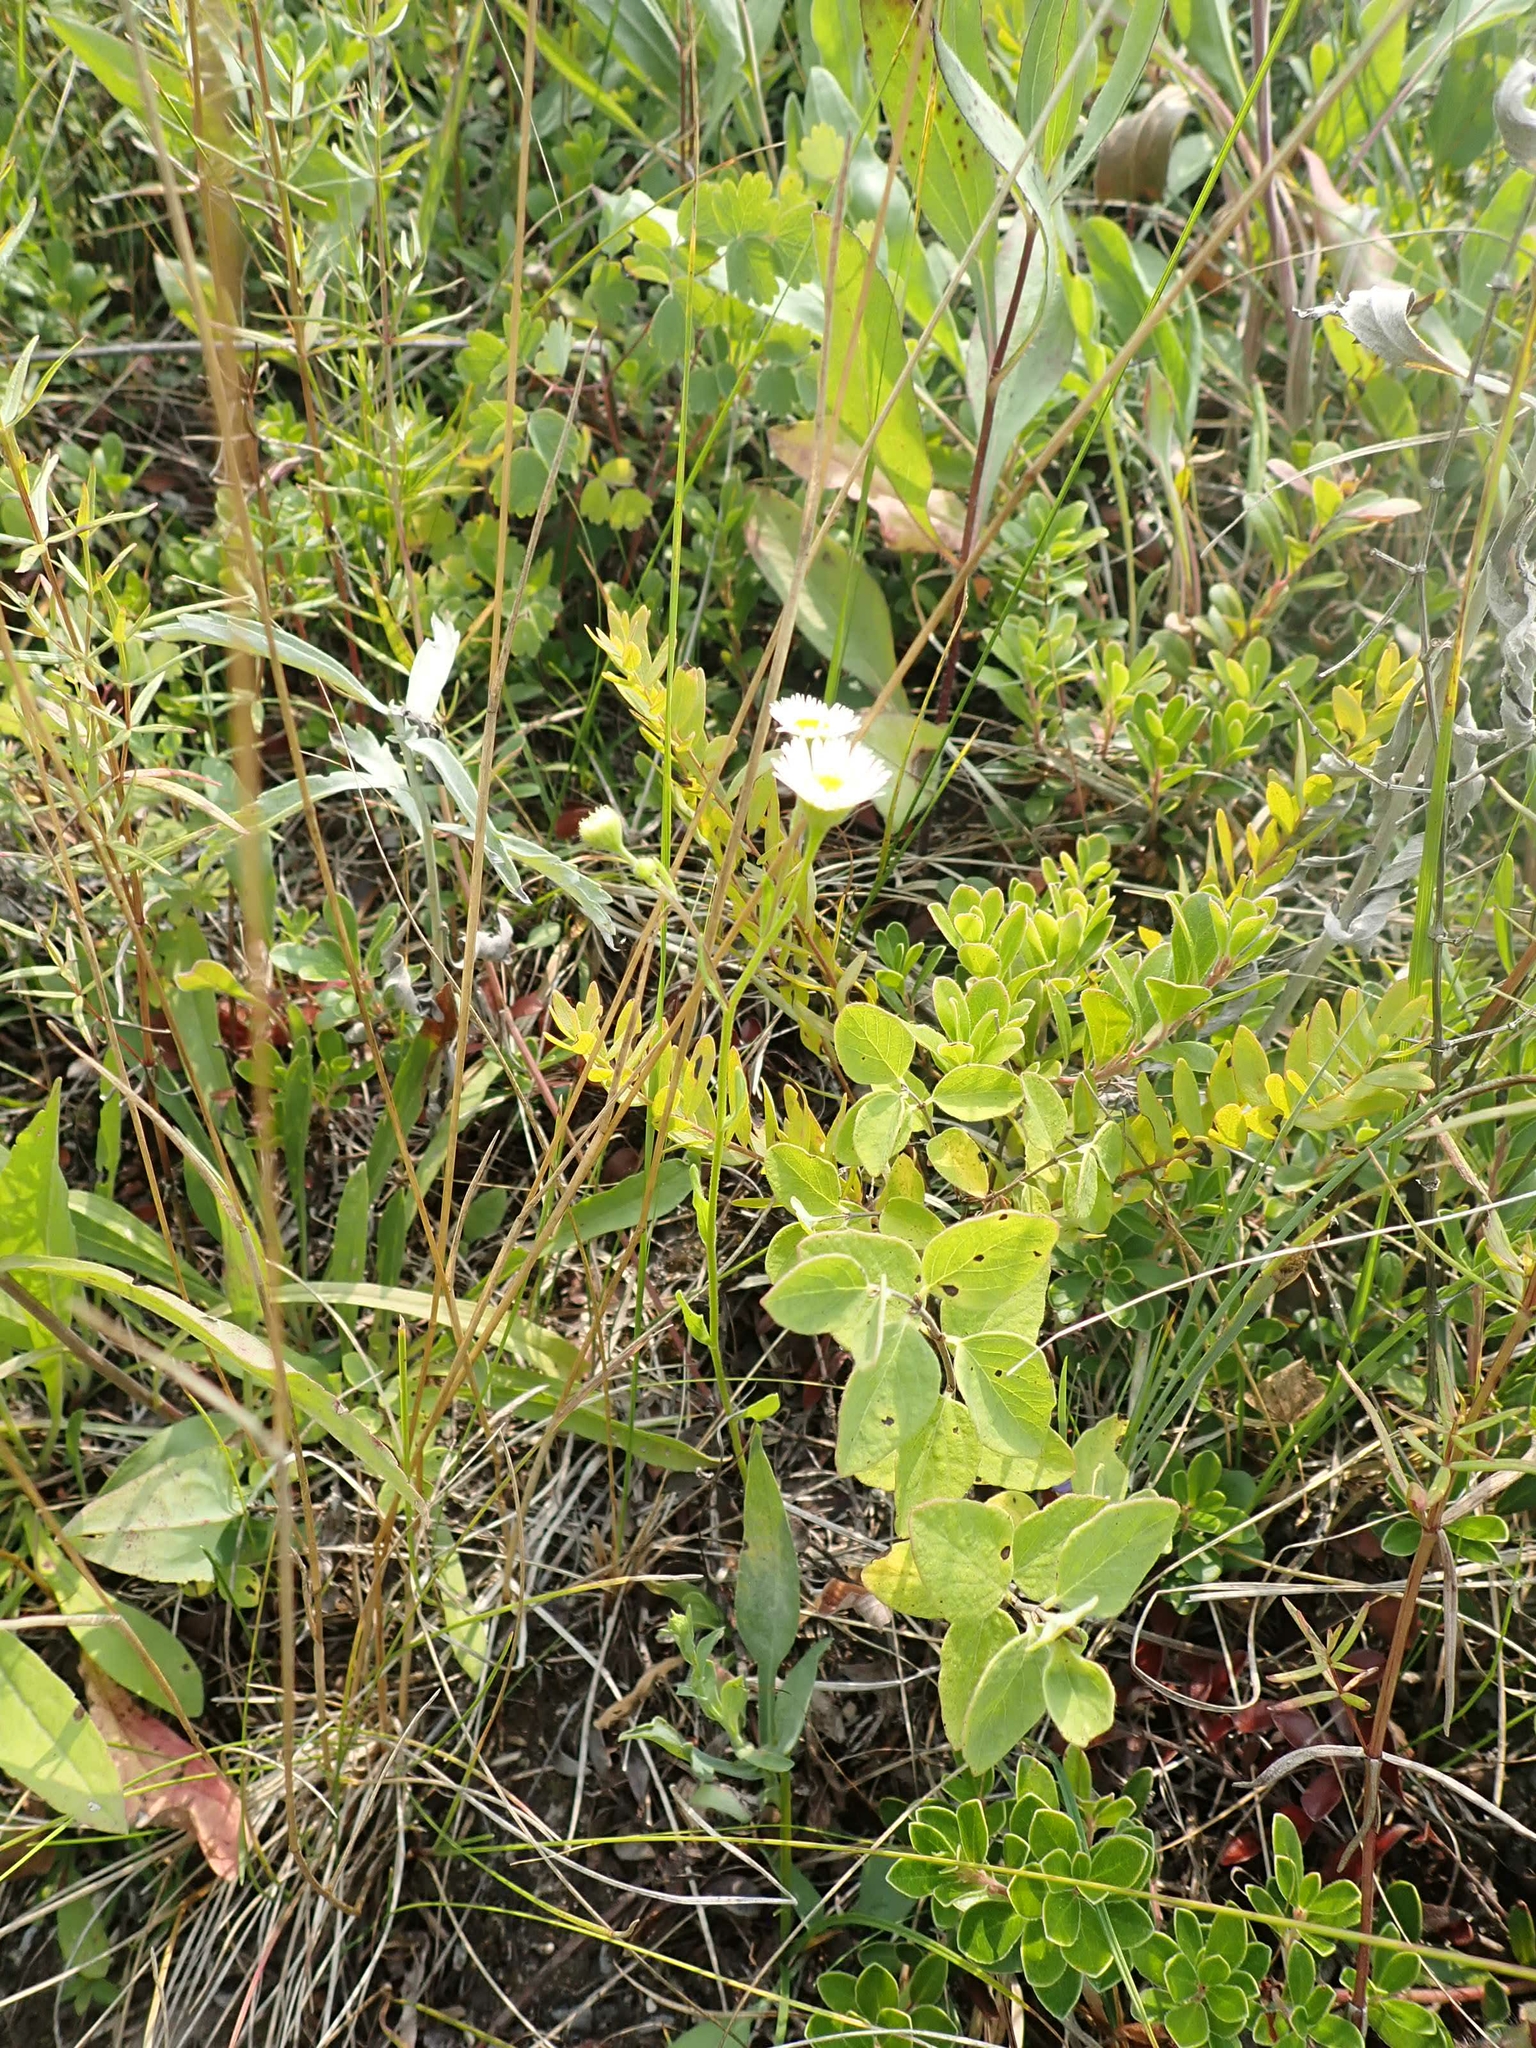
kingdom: Plantae
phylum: Tracheophyta
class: Magnoliopsida
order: Asterales
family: Asteraceae
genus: Erigeron
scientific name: Erigeron strigosus
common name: Common eastern fleabane
